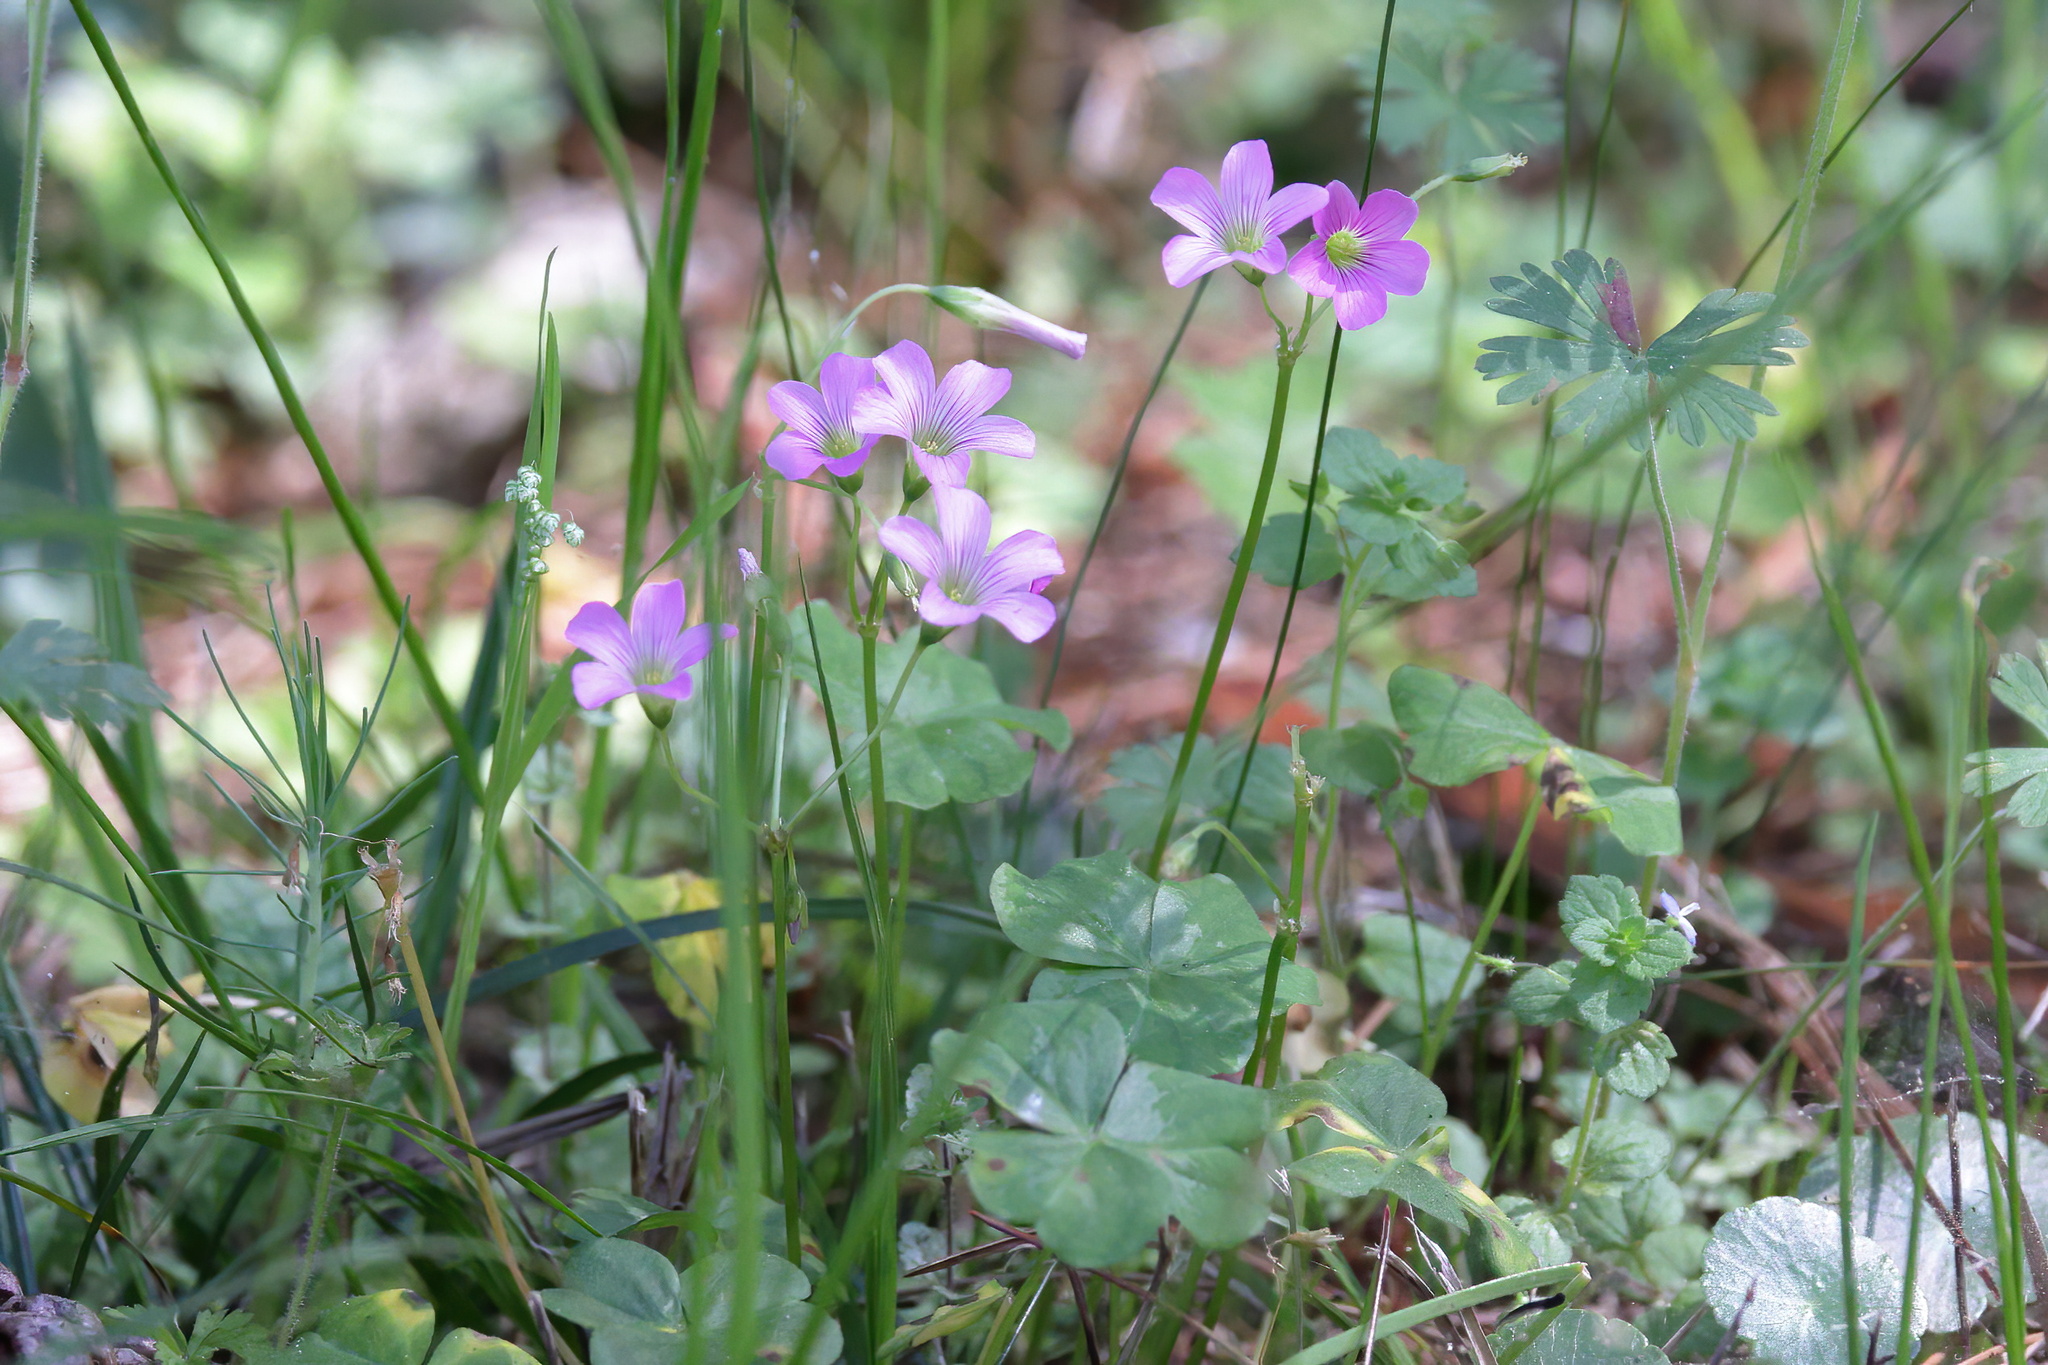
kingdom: Plantae
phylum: Tracheophyta
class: Magnoliopsida
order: Oxalidales
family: Oxalidaceae
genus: Oxalis
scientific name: Oxalis debilis
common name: Large-flowered pink-sorrel
